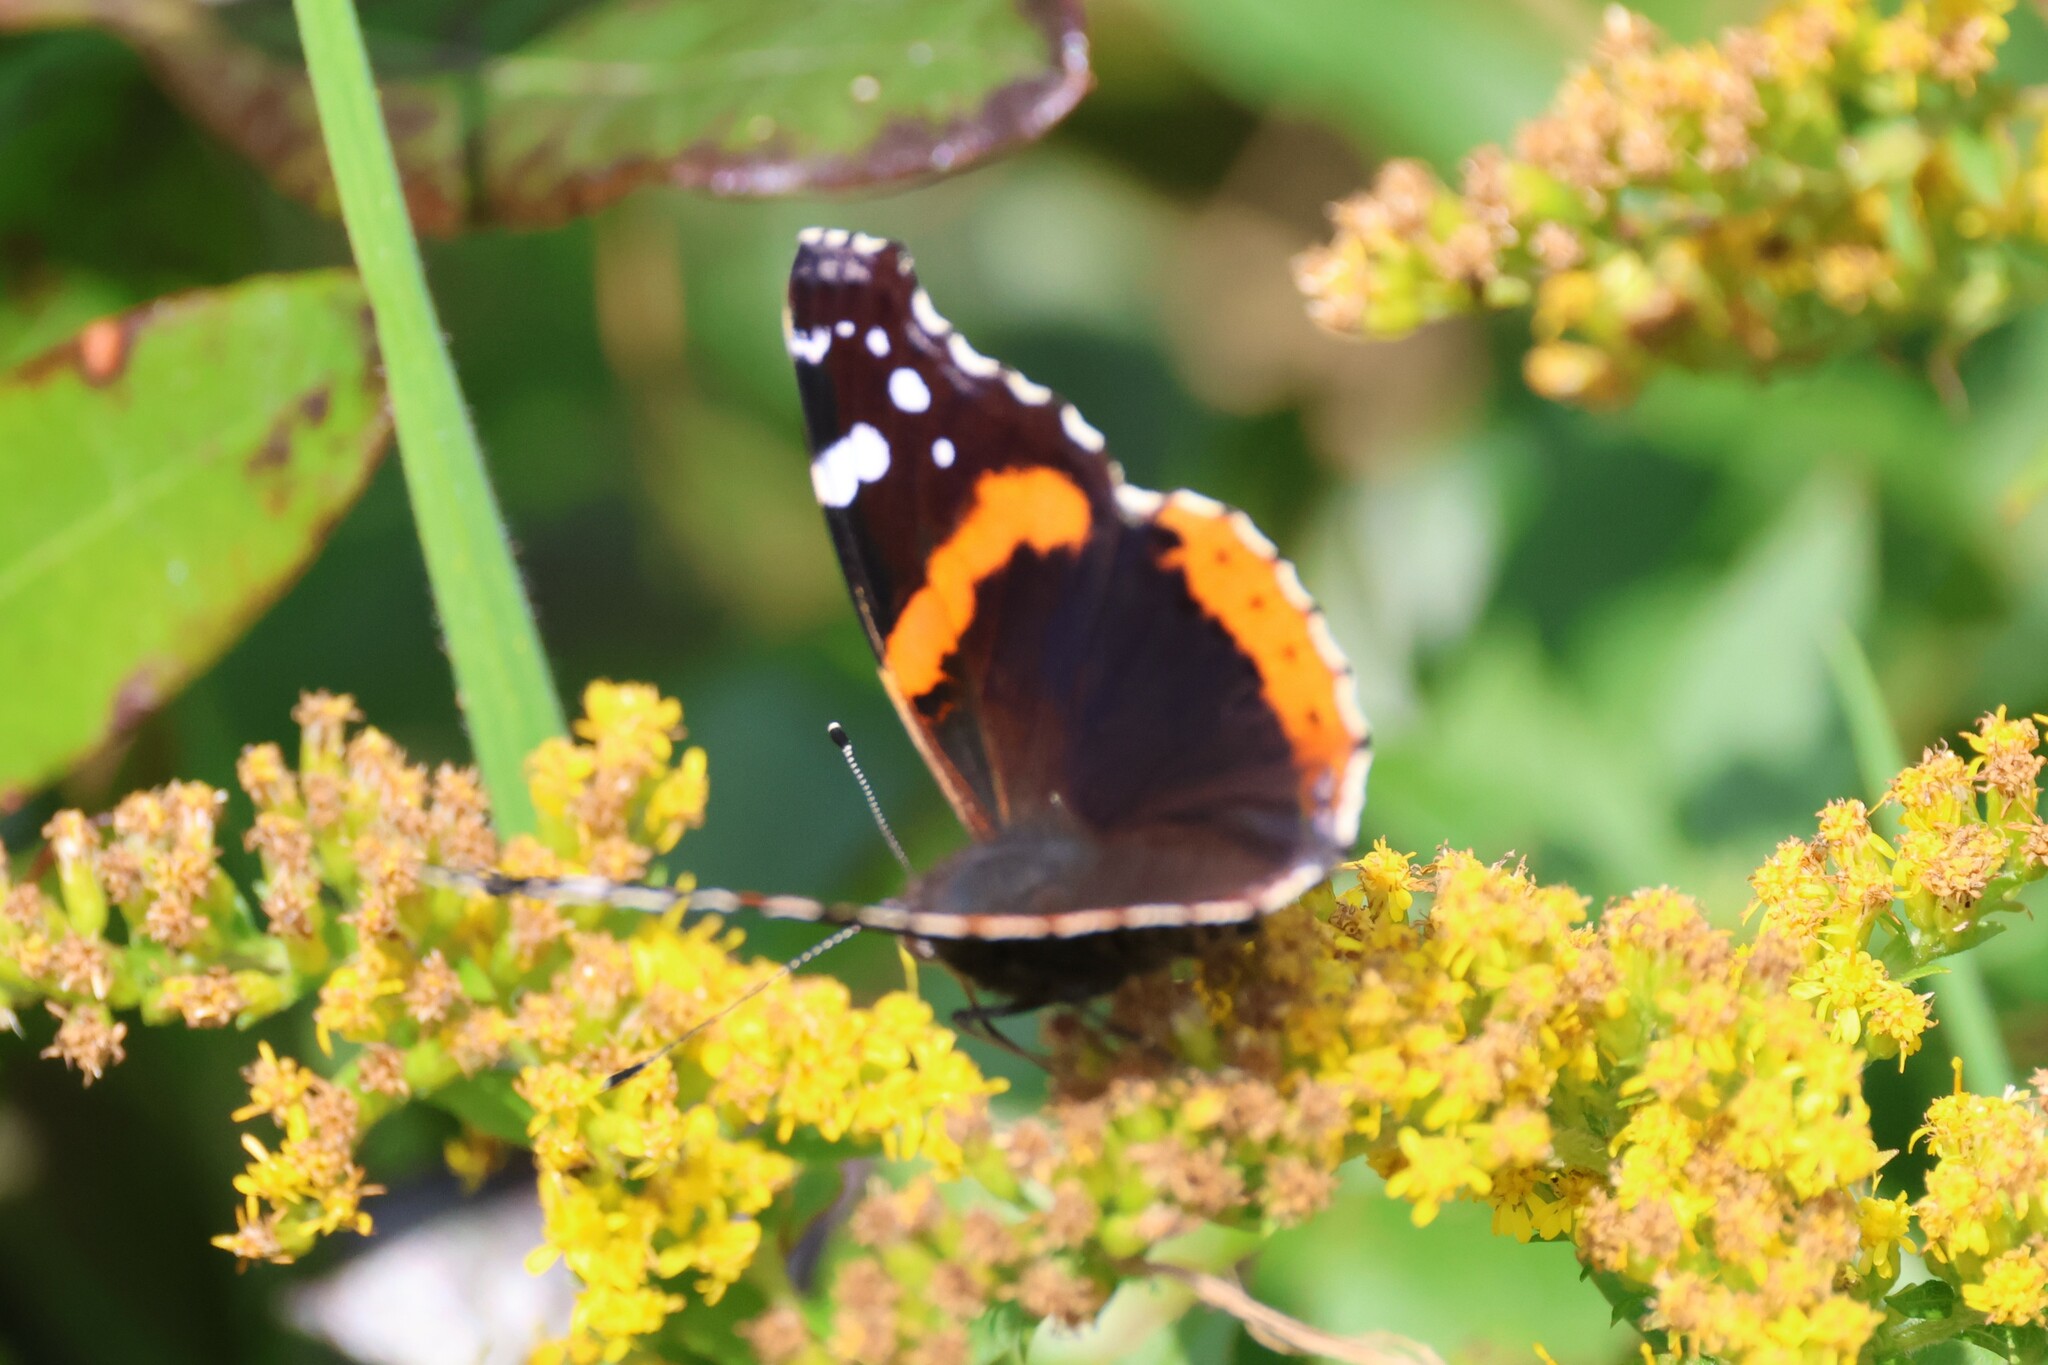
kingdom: Animalia
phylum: Arthropoda
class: Insecta
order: Lepidoptera
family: Nymphalidae
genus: Vanessa
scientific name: Vanessa atalanta
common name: Red admiral
